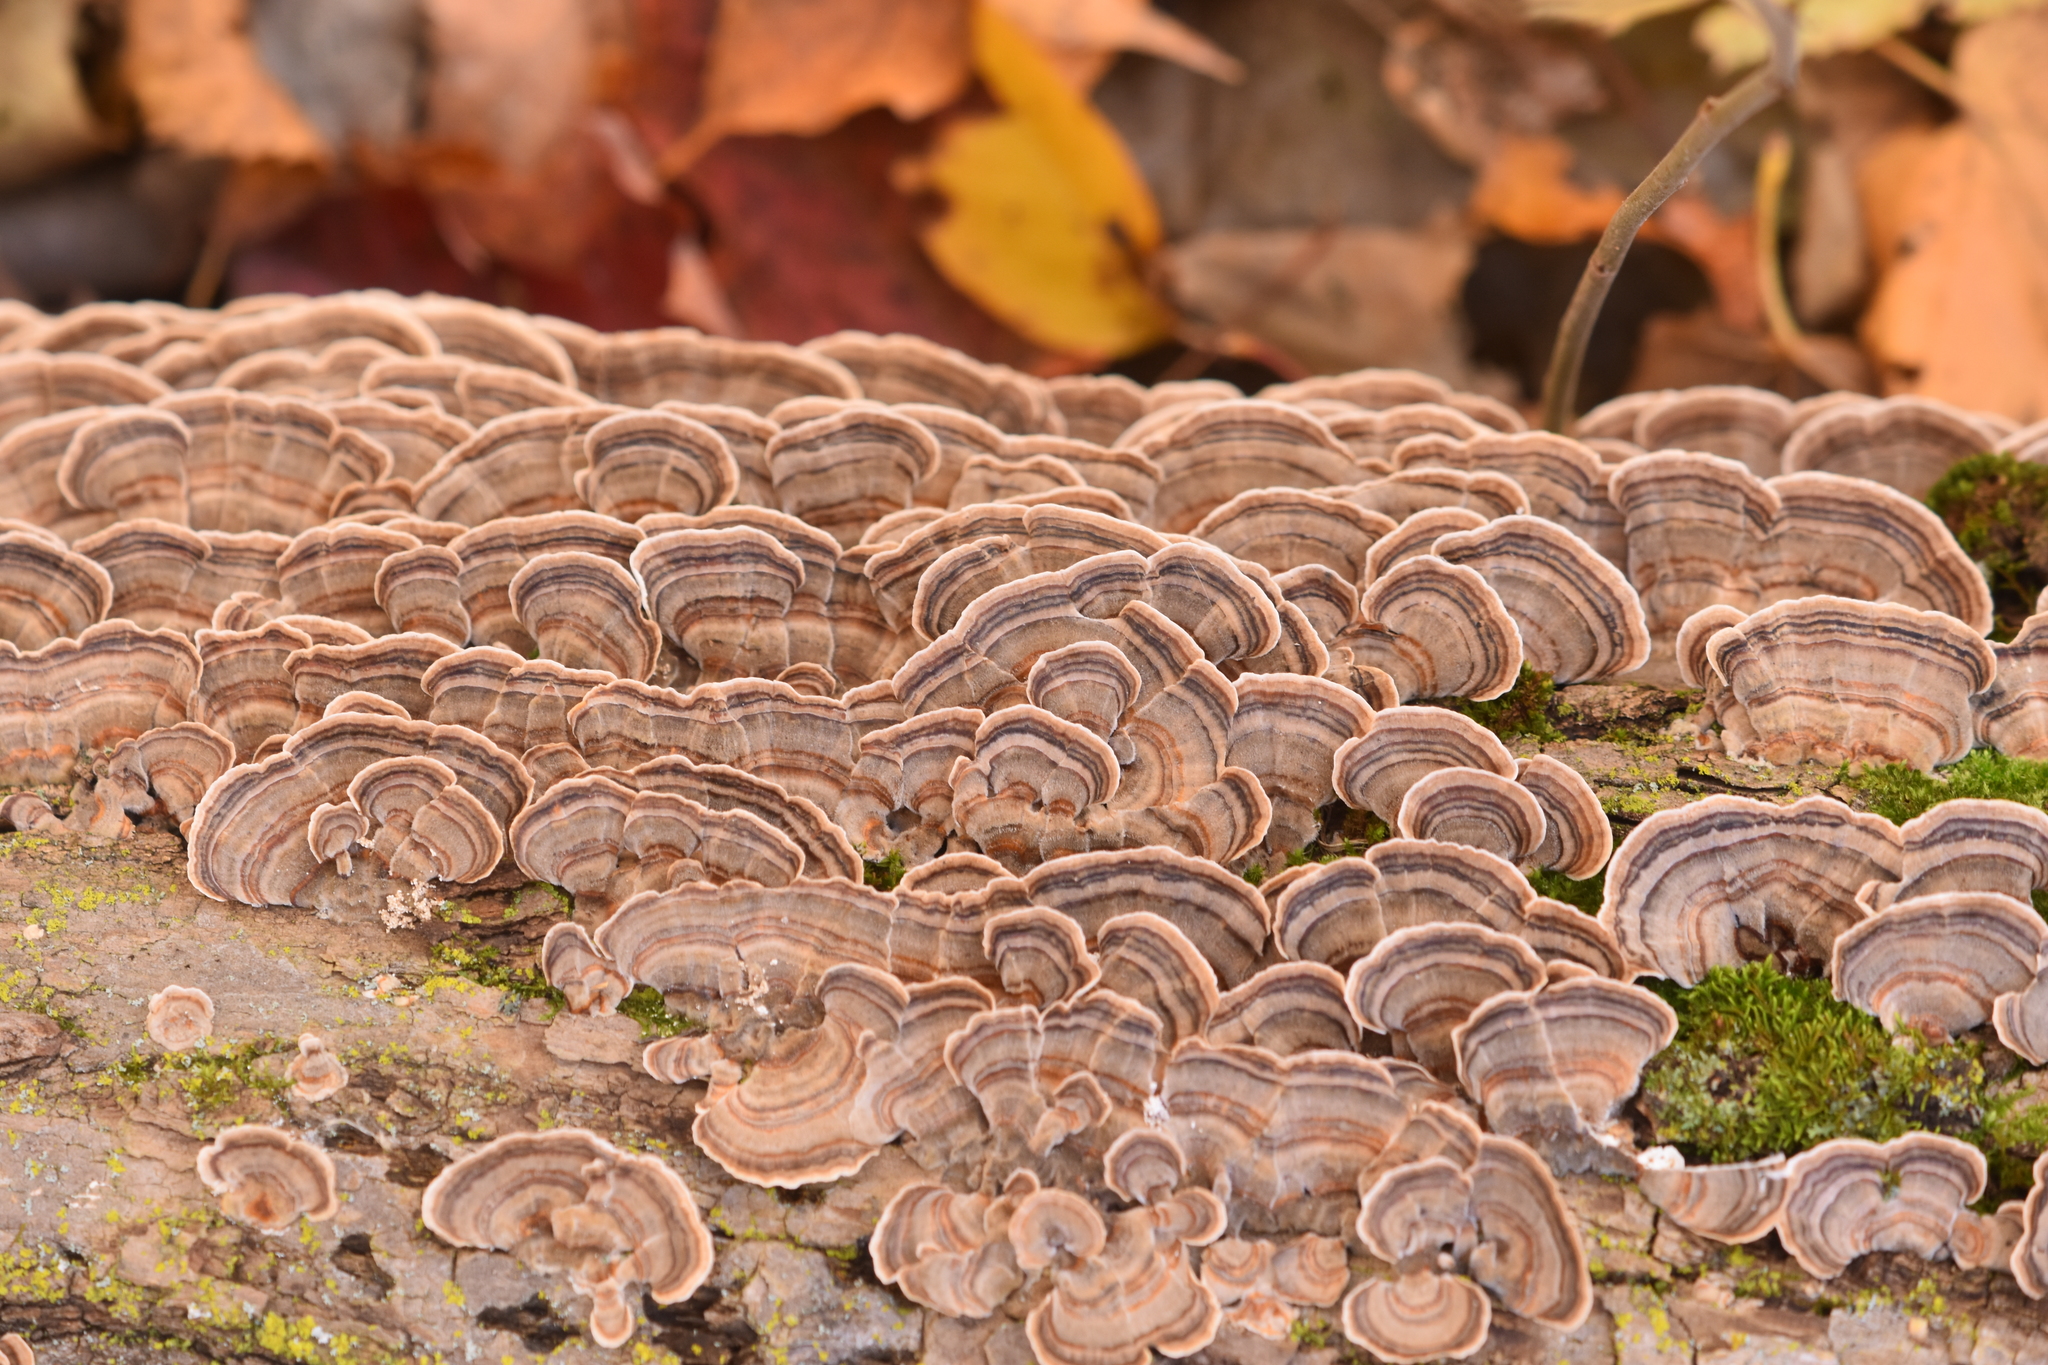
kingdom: Fungi
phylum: Basidiomycota
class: Agaricomycetes
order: Polyporales
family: Polyporaceae
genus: Trametes
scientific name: Trametes versicolor
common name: Turkeytail
